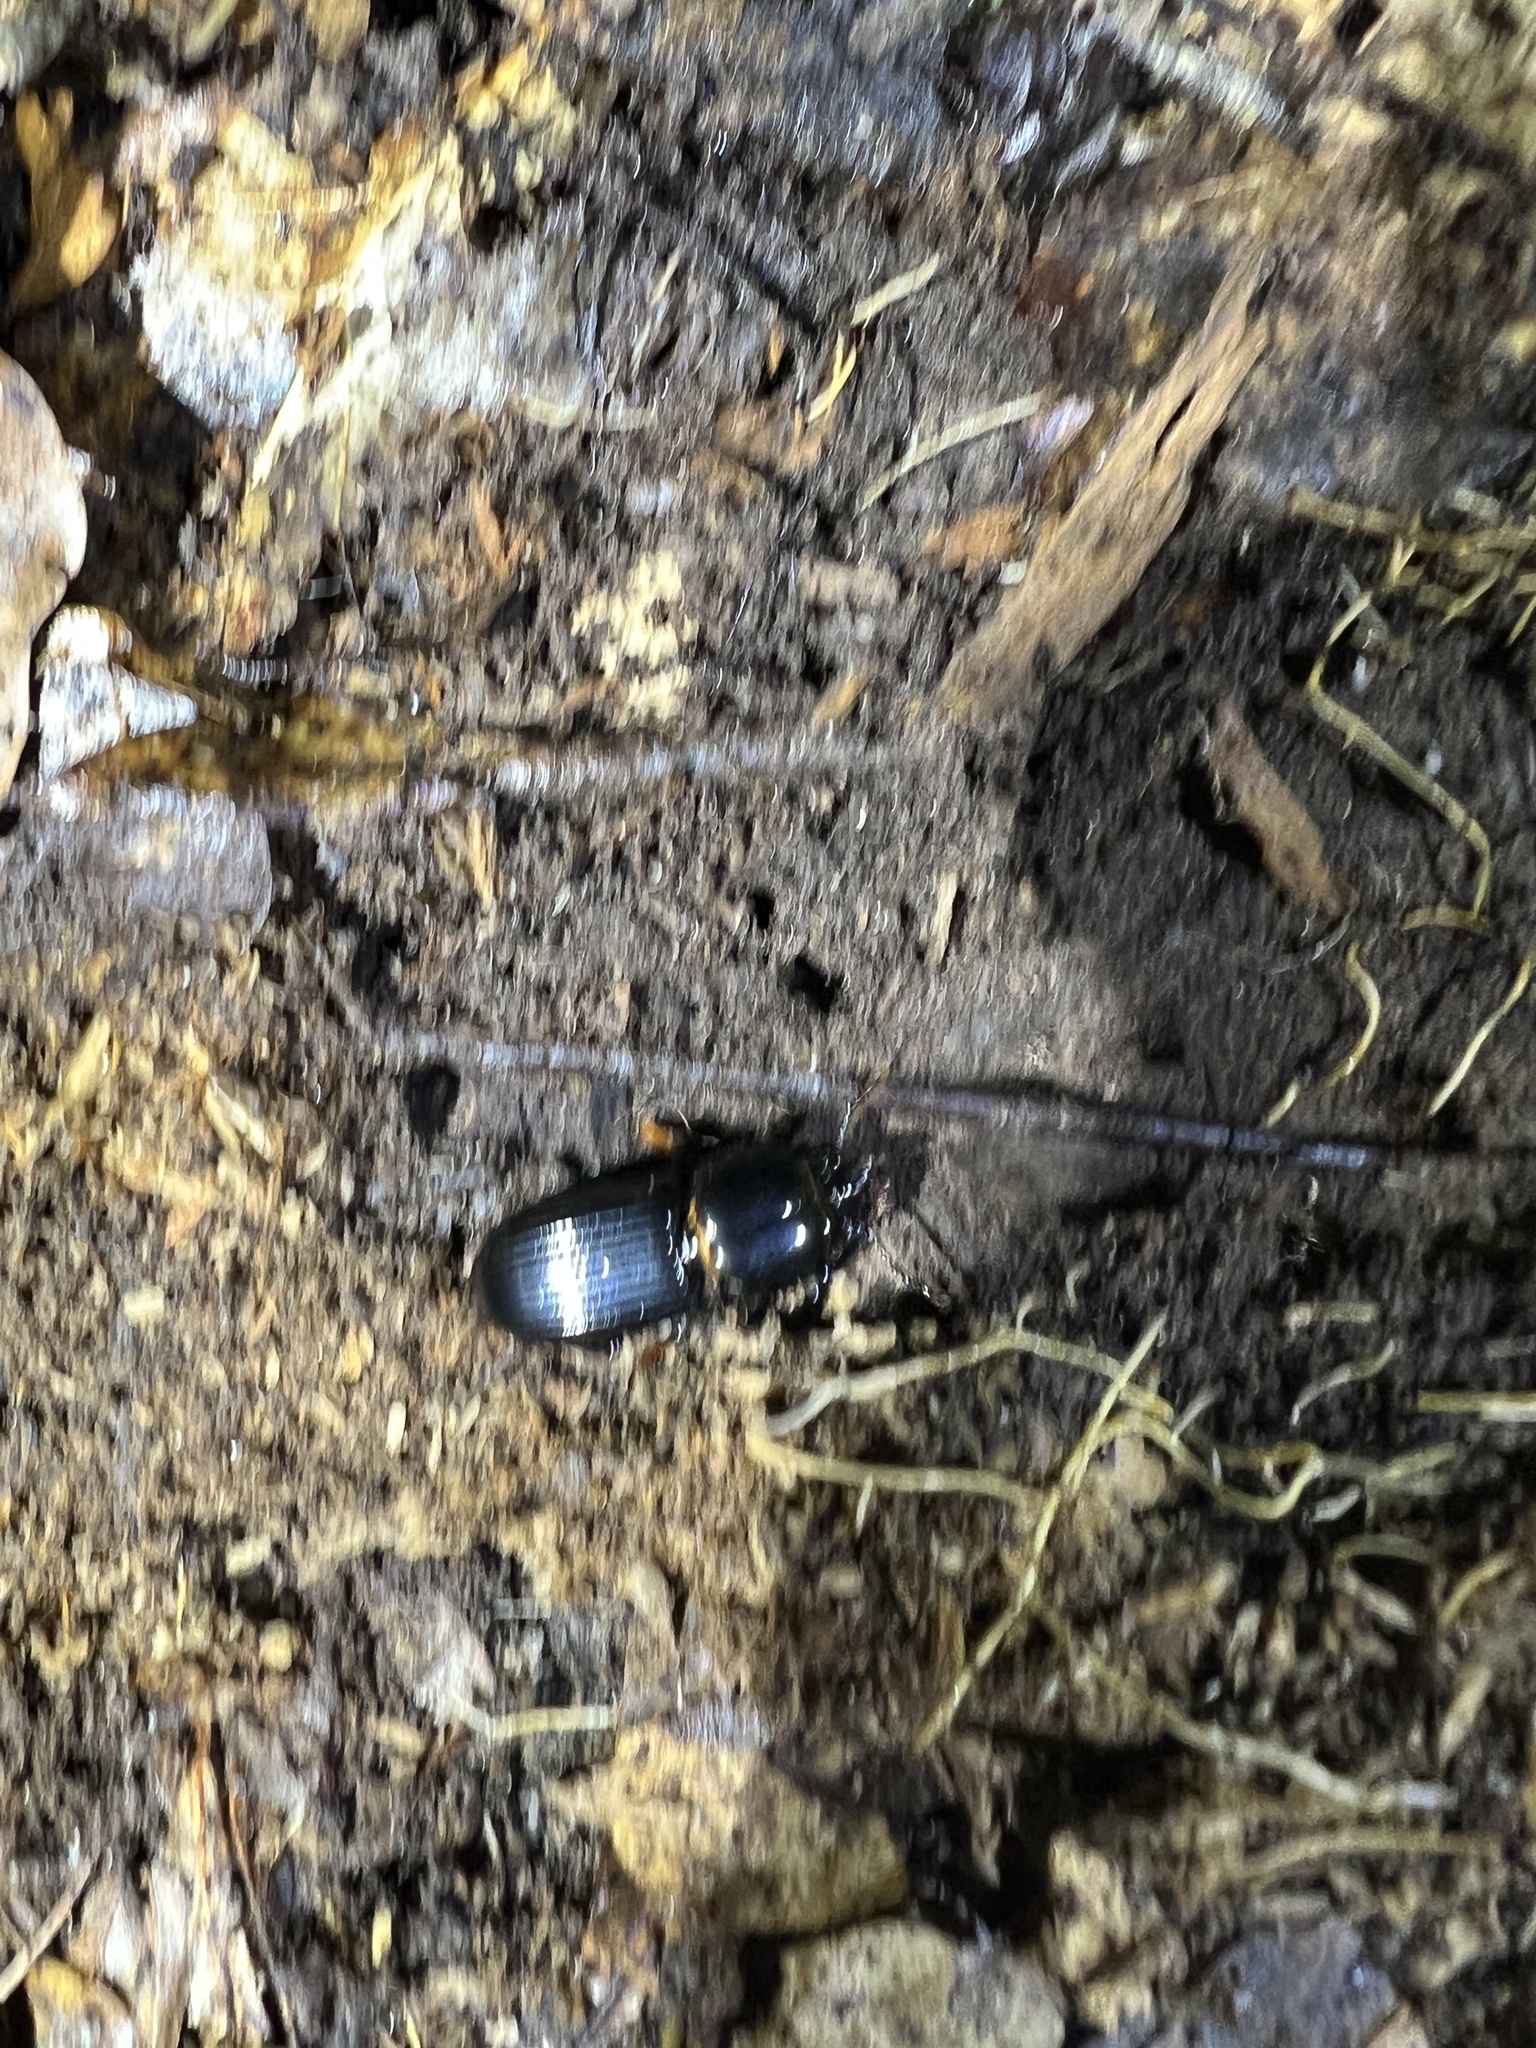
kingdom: Animalia
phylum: Arthropoda
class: Insecta
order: Coleoptera
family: Passalidae
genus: Odontotaenius
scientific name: Odontotaenius disjunctus
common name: Patent leather beetle
